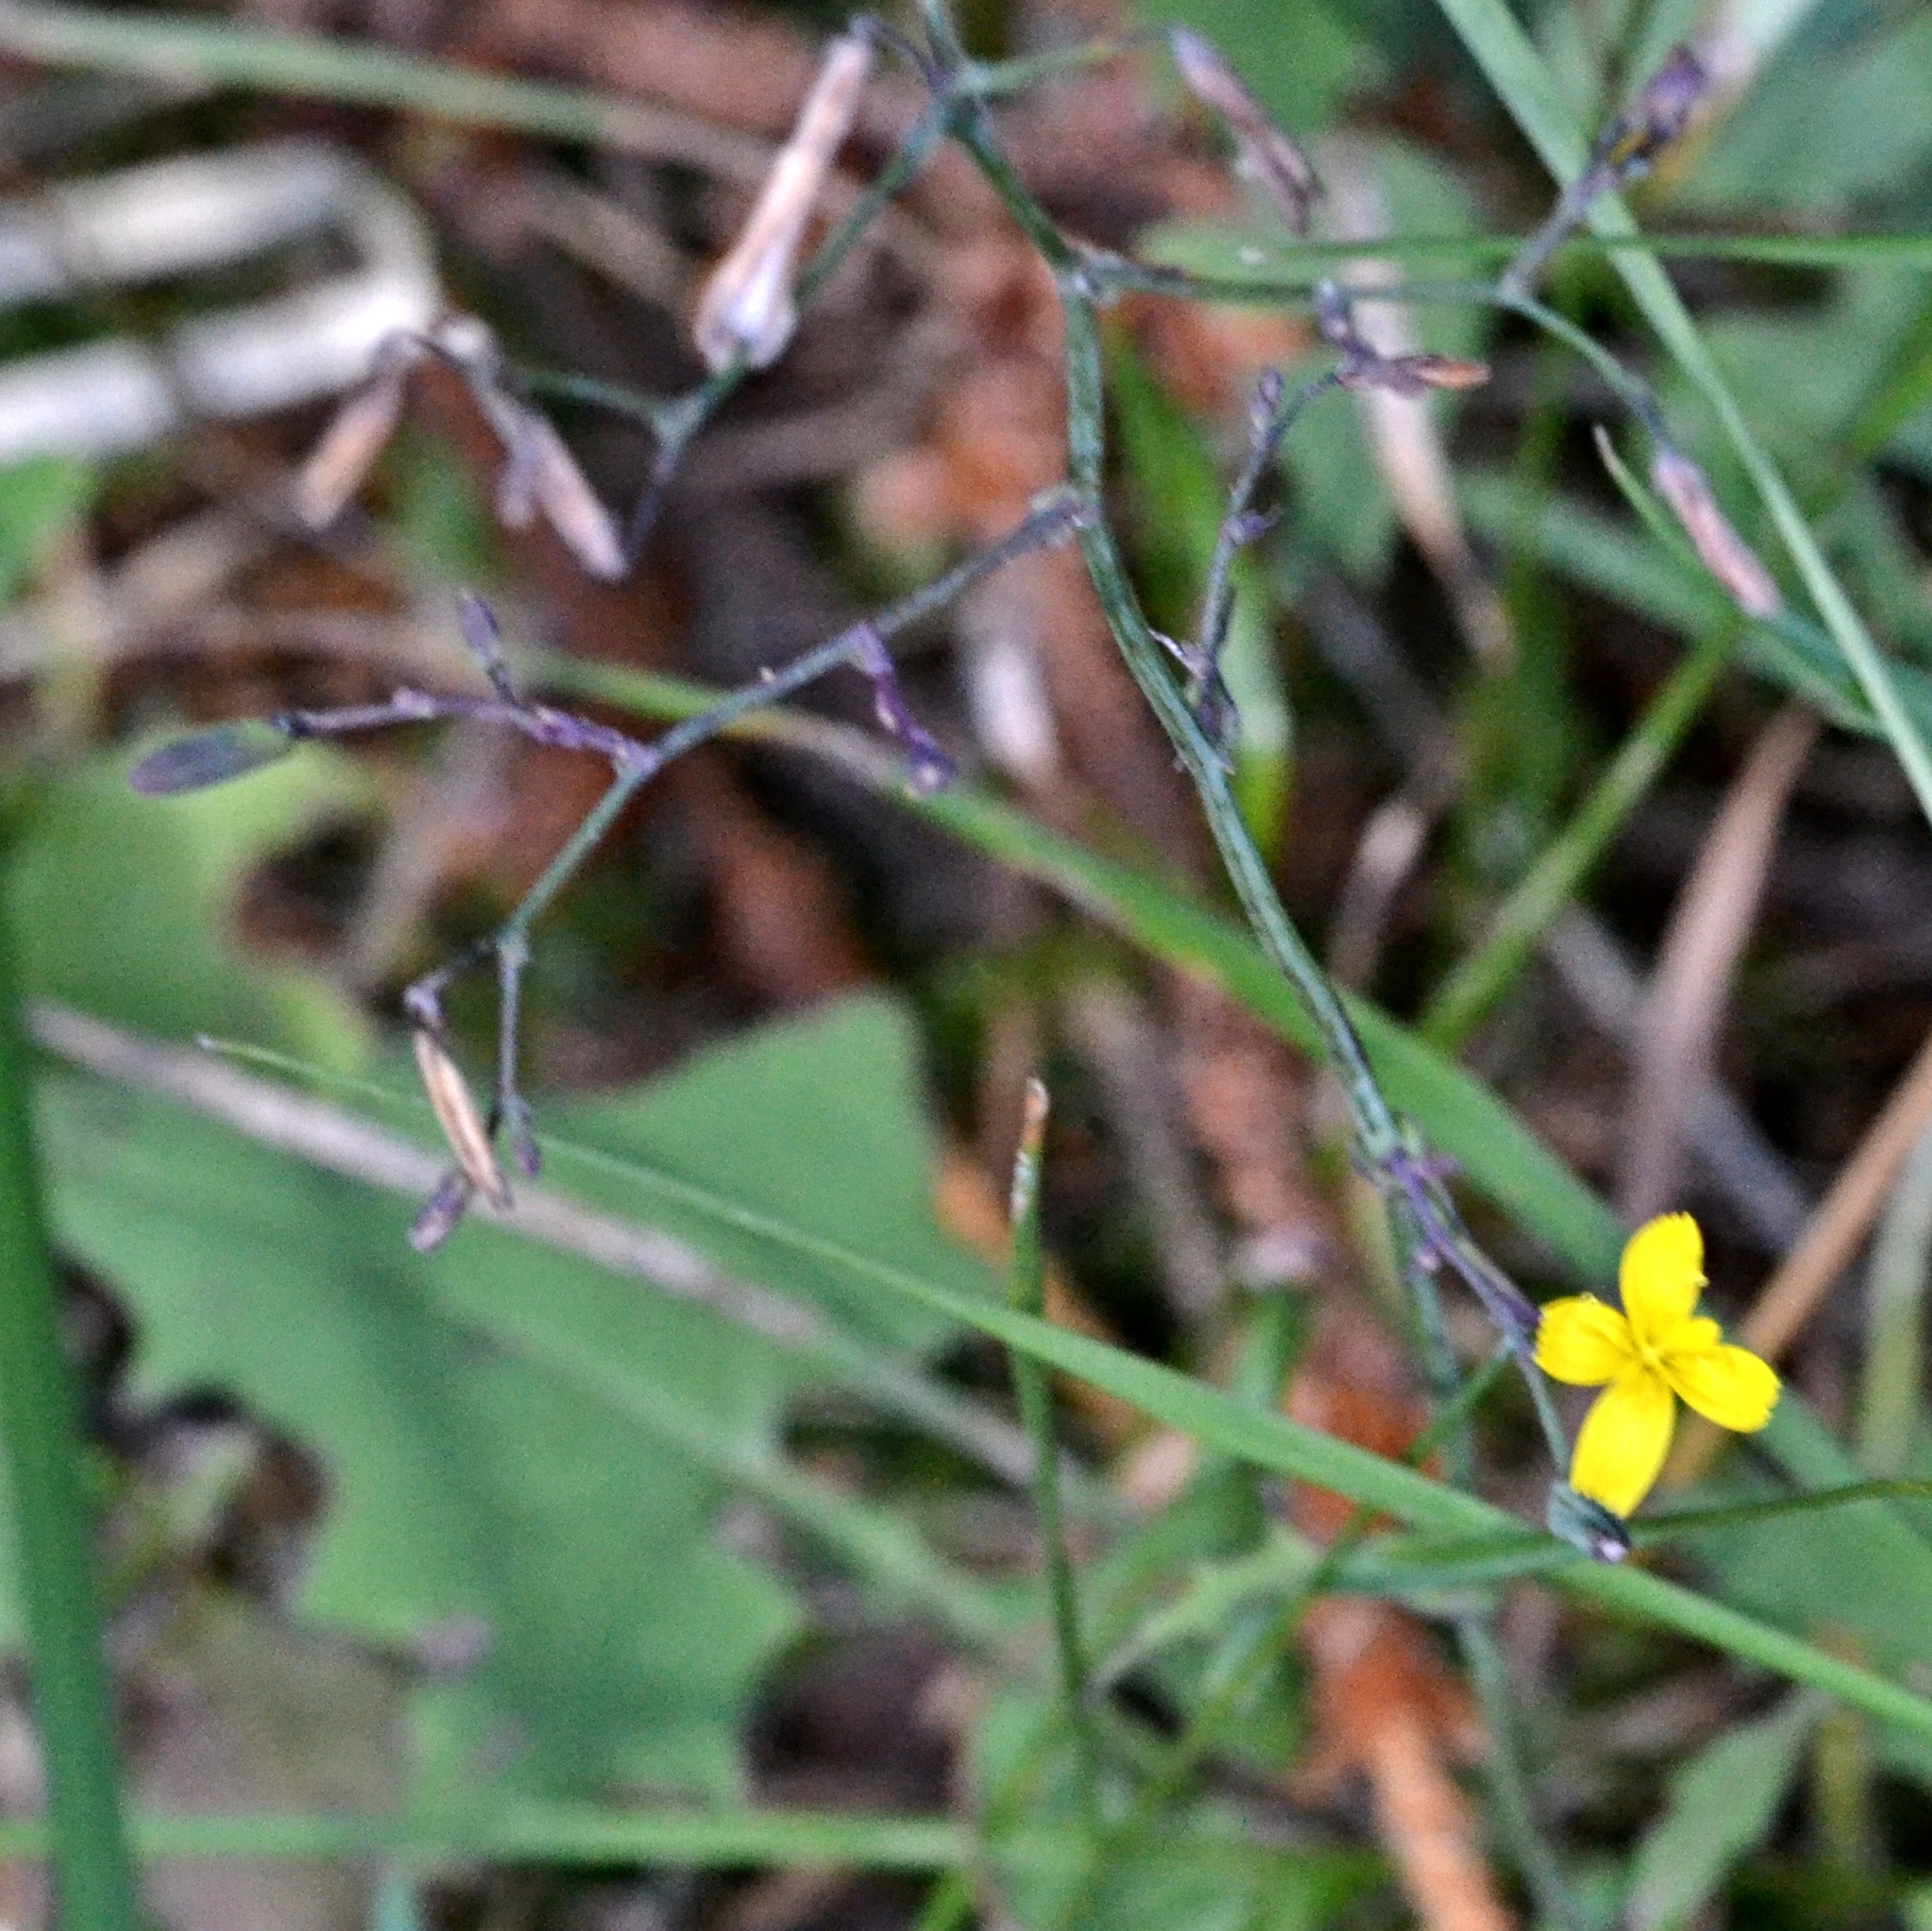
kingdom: Plantae
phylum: Tracheophyta
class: Magnoliopsida
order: Asterales
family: Asteraceae
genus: Mycelis
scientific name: Mycelis muralis
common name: Wall lettuce
